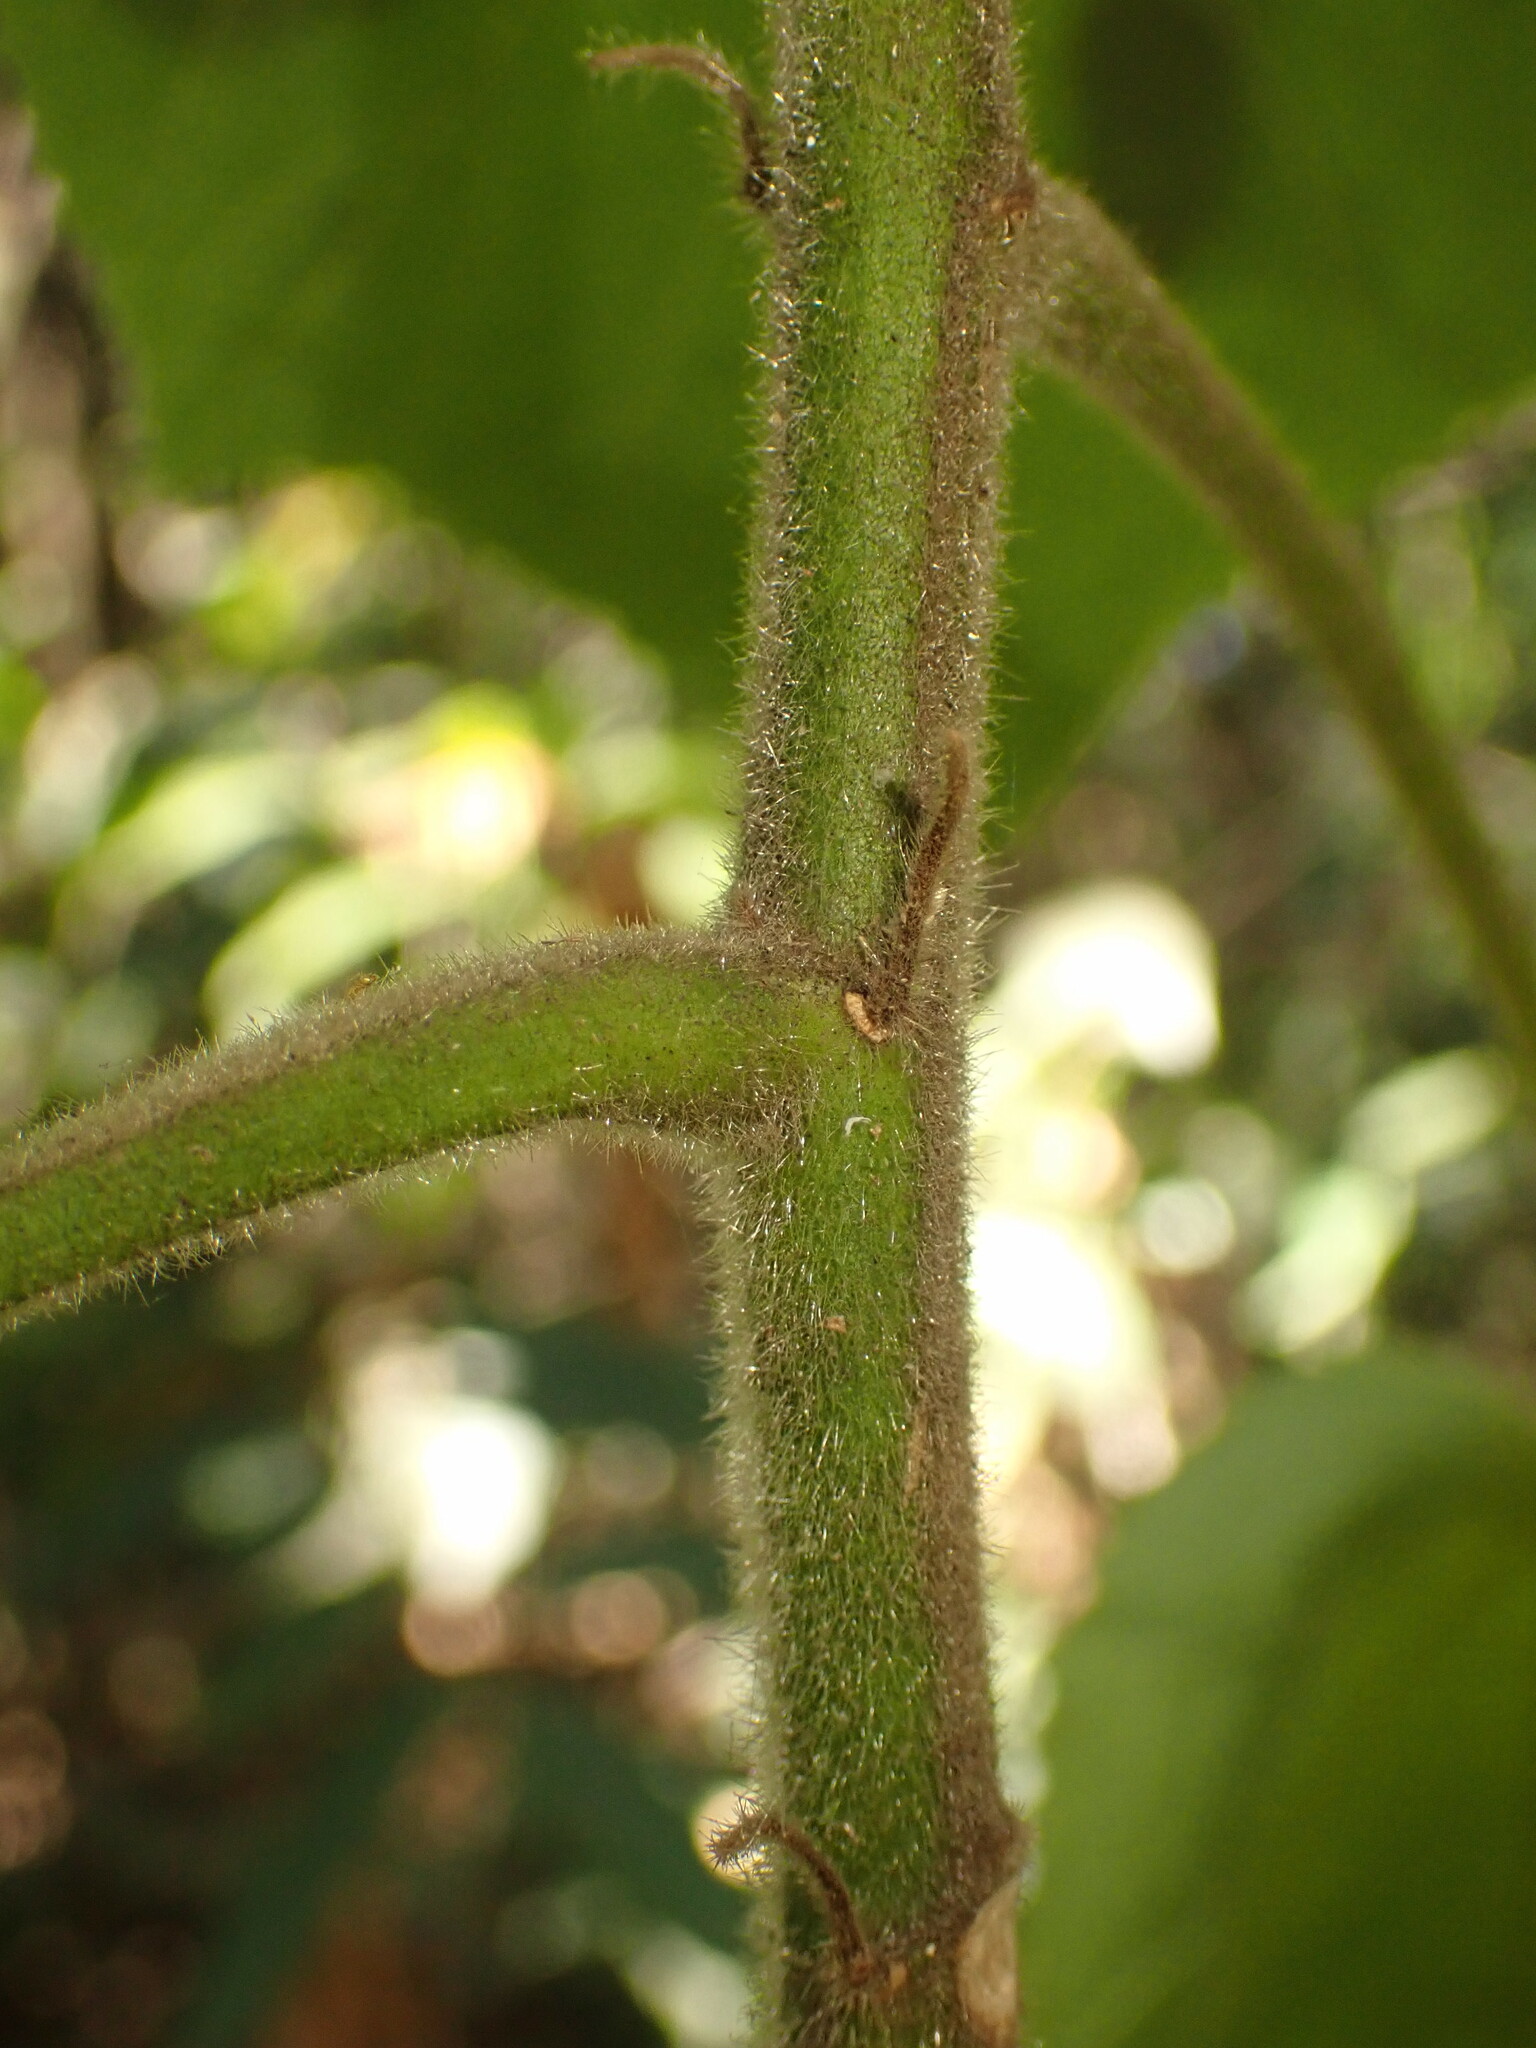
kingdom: Plantae
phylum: Tracheophyta
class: Magnoliopsida
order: Malvales
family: Malvaceae
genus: Pavonia
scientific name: Pavonia malacophylla
